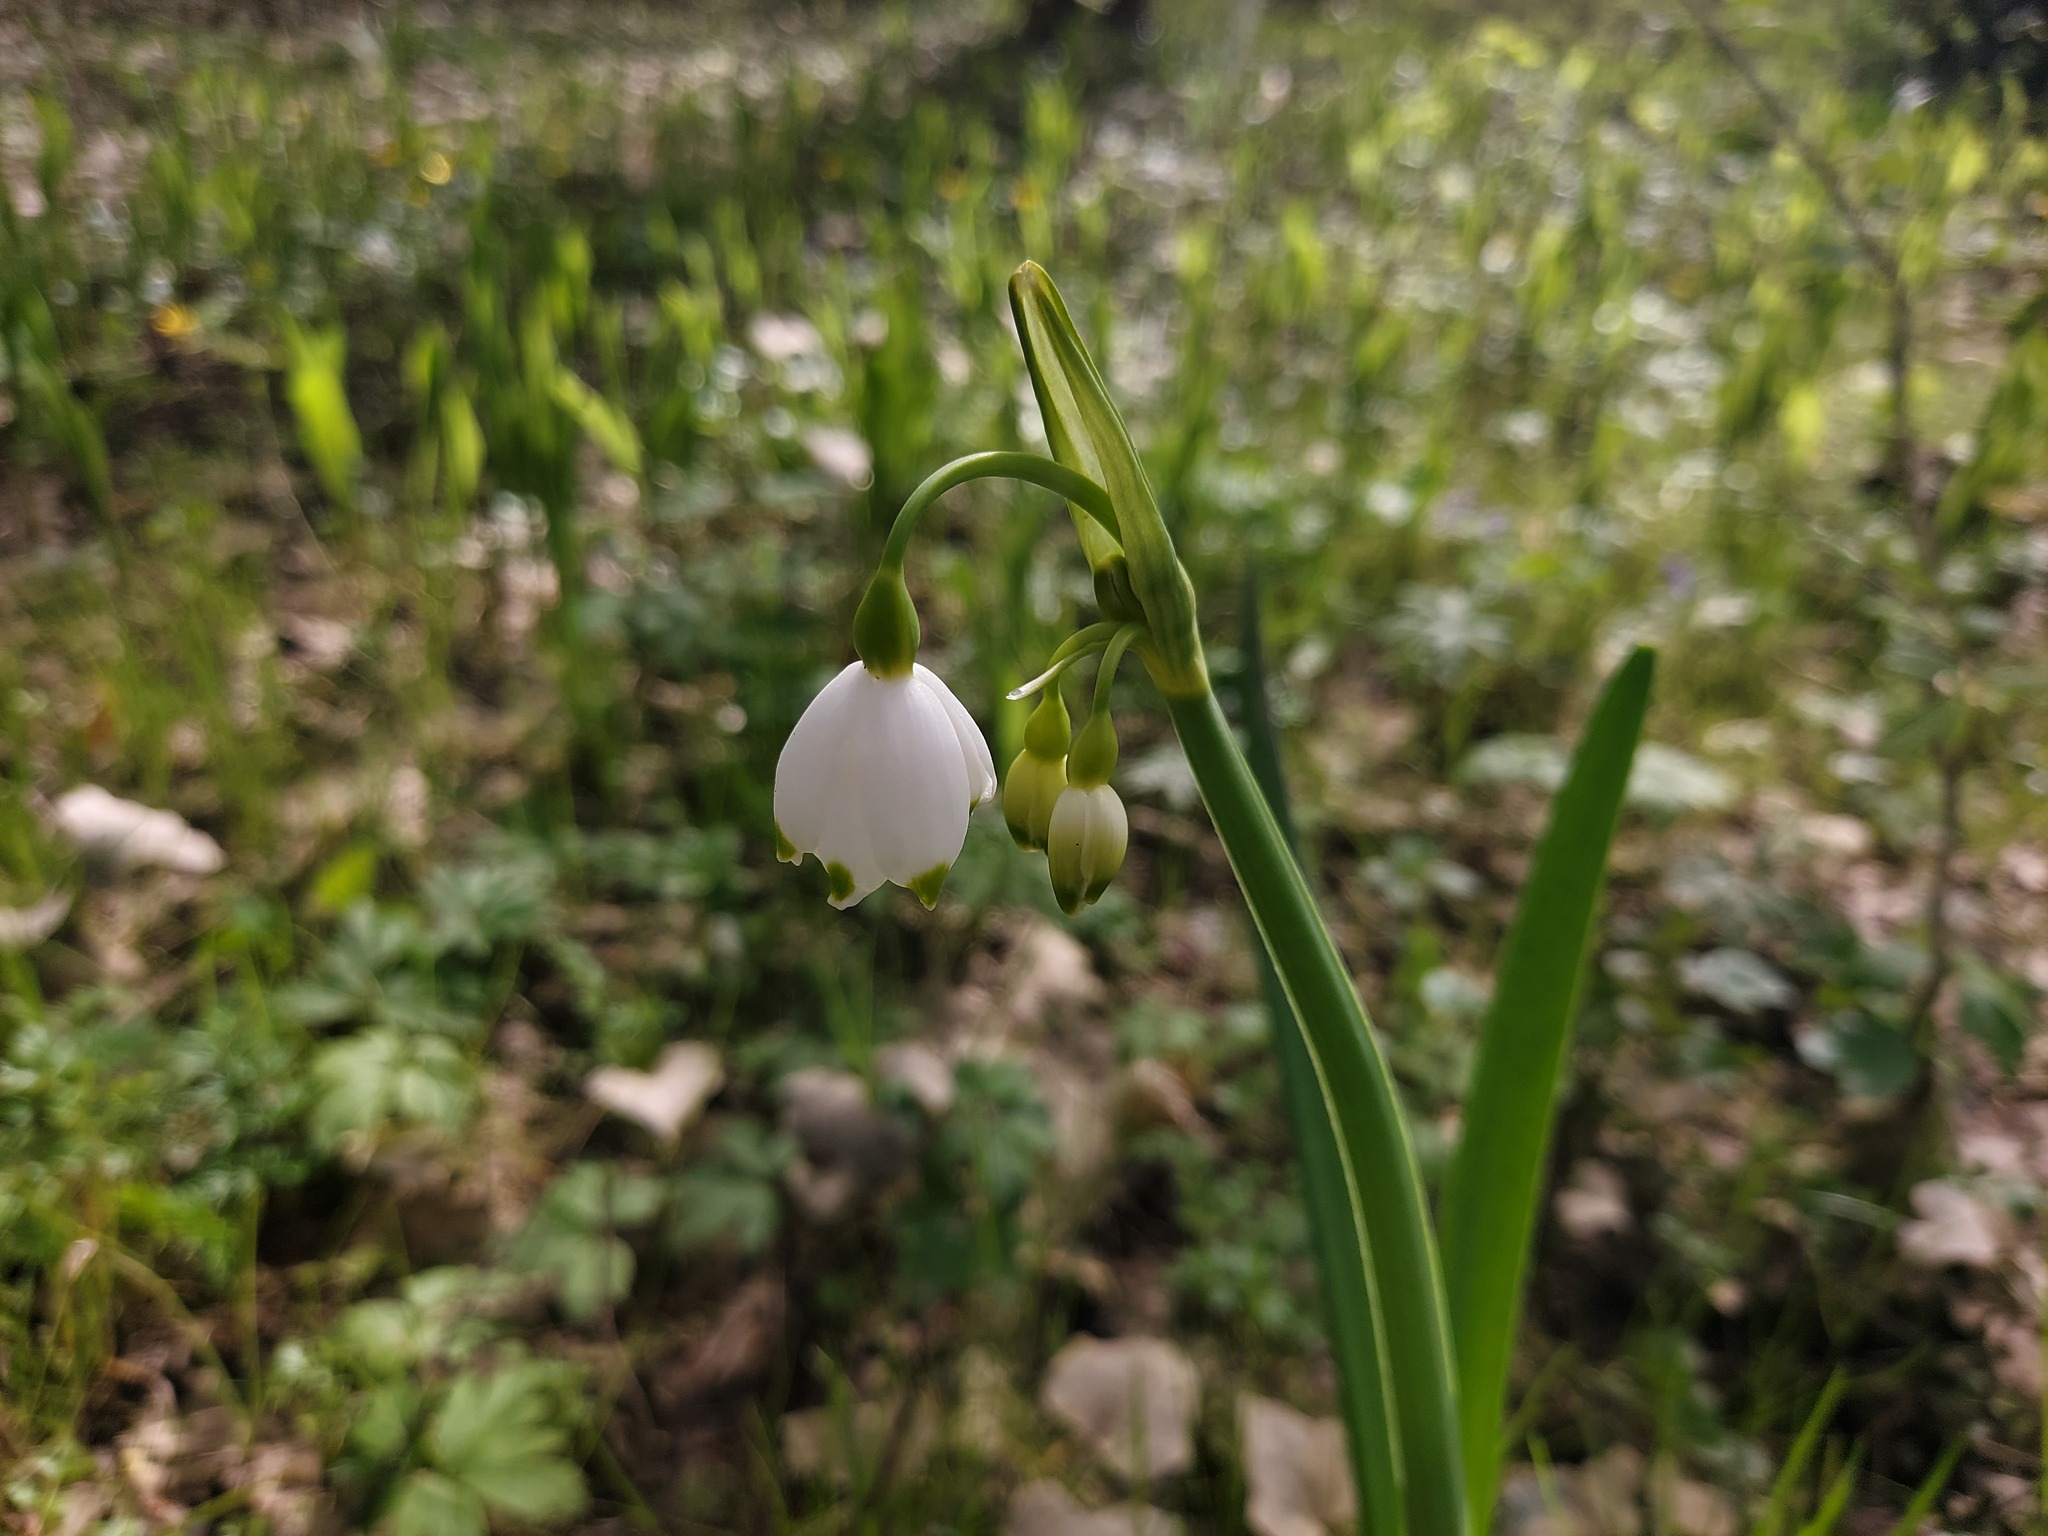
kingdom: Plantae
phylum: Tracheophyta
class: Liliopsida
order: Asparagales
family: Amaryllidaceae
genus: Leucojum
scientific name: Leucojum aestivum
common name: Summer snowflake
